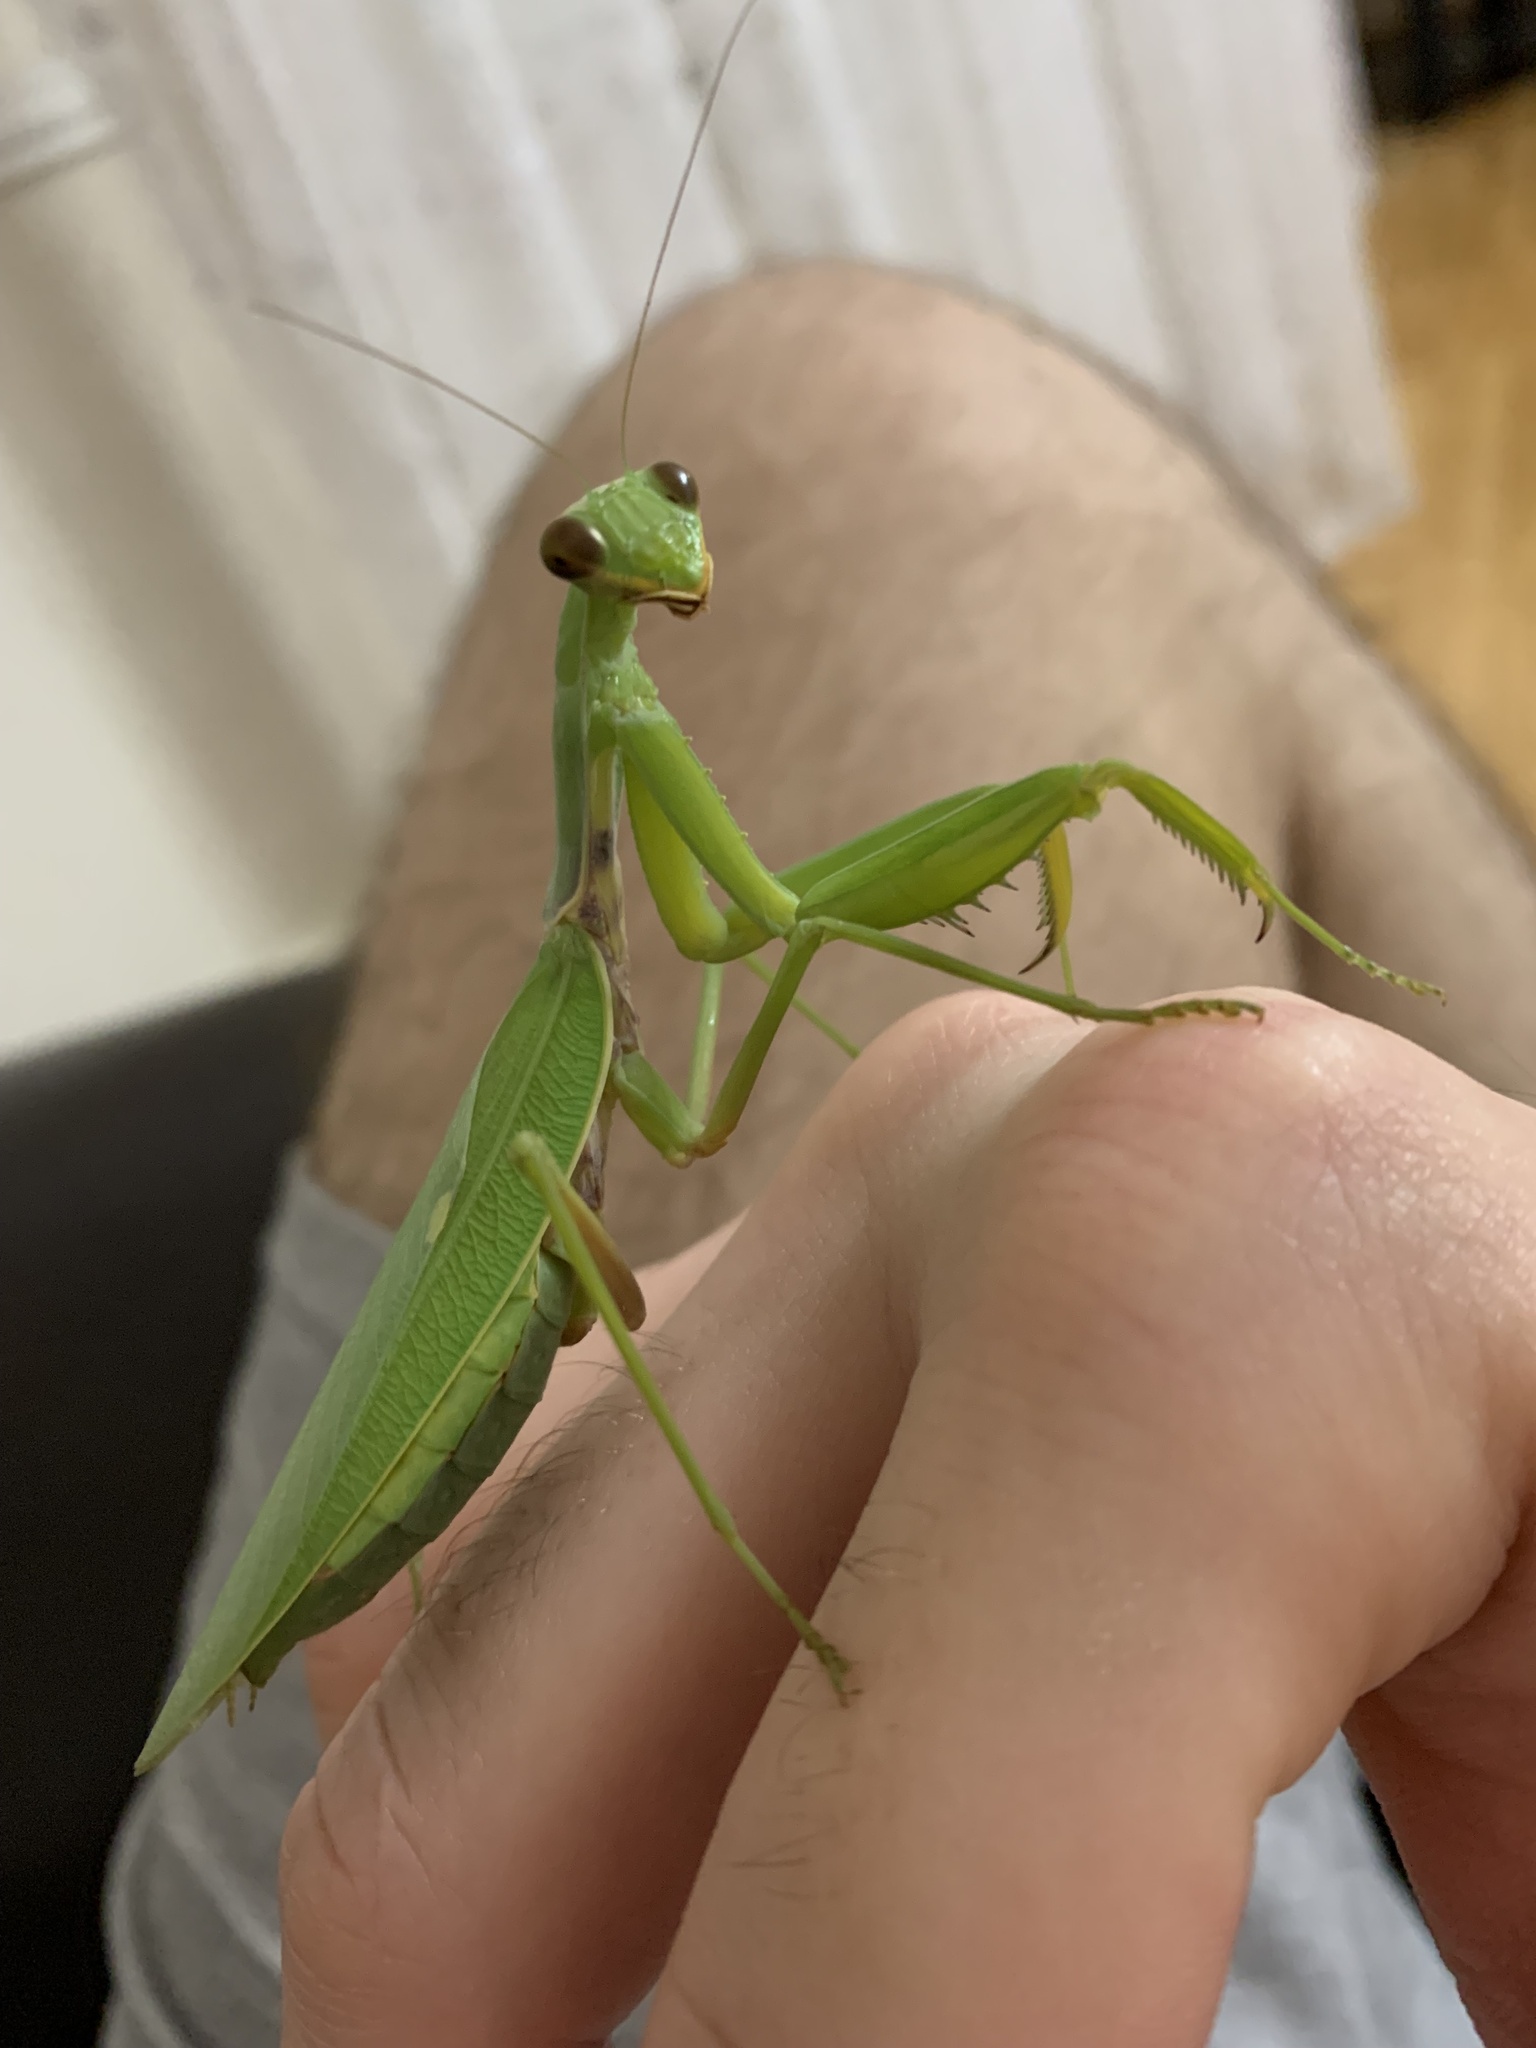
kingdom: Animalia
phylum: Arthropoda
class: Insecta
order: Mantodea
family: Mantidae
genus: Hierodula
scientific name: Hierodula transcaucasica
